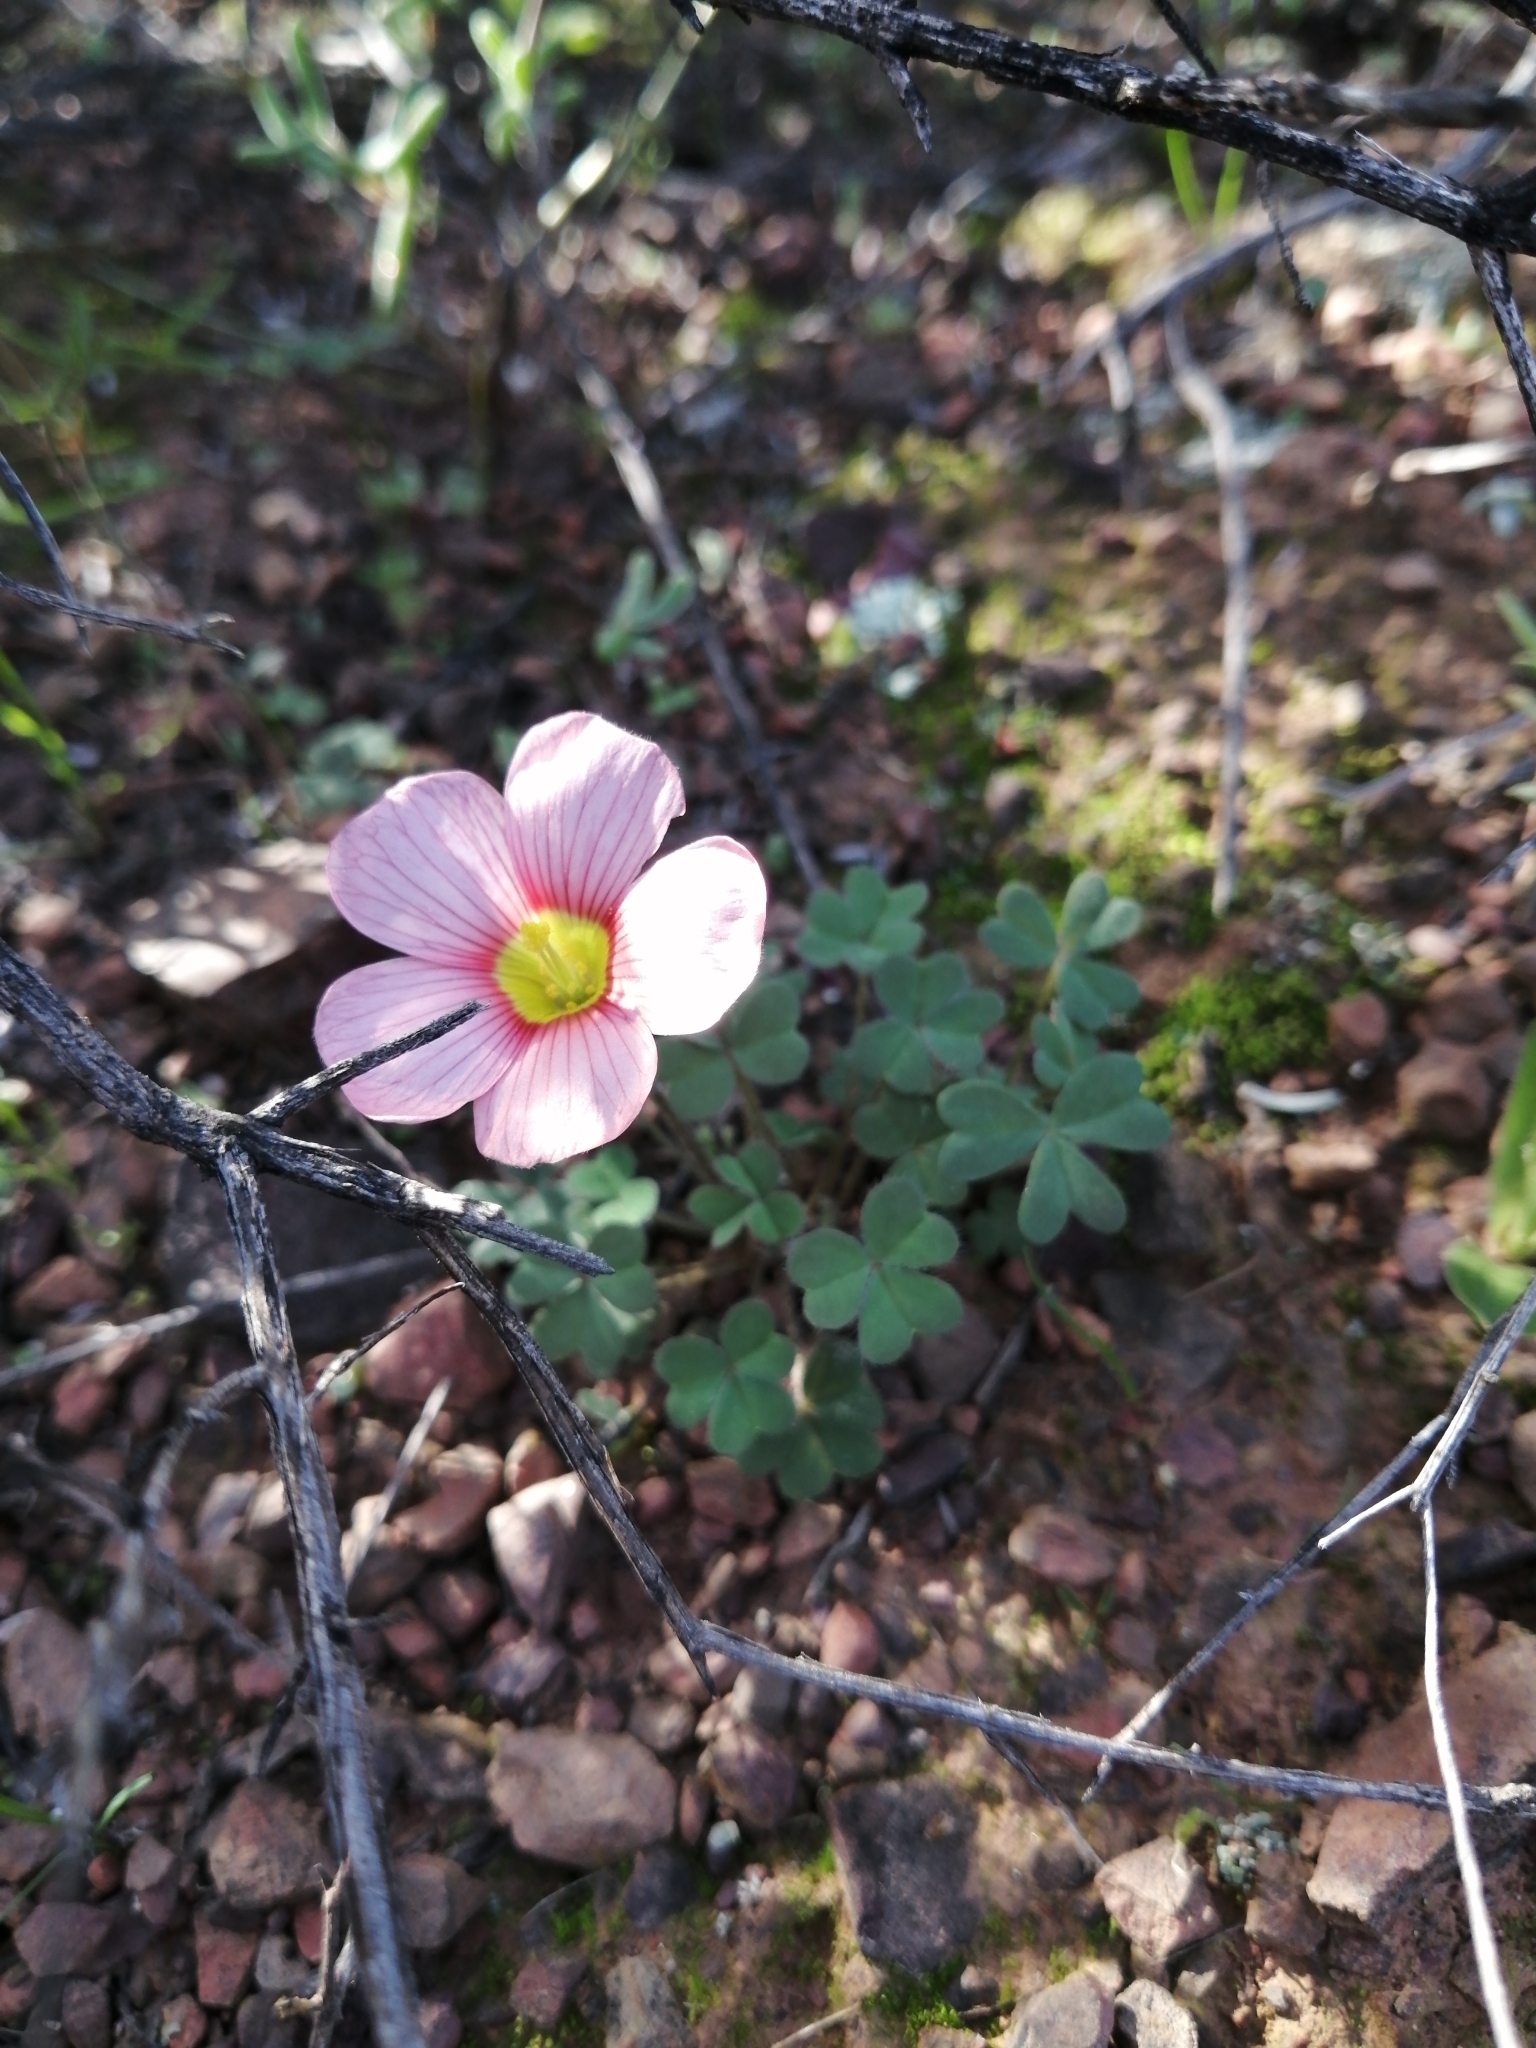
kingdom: Plantae
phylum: Tracheophyta
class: Magnoliopsida
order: Oxalidales
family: Oxalidaceae
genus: Oxalis
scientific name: Oxalis obtusa
